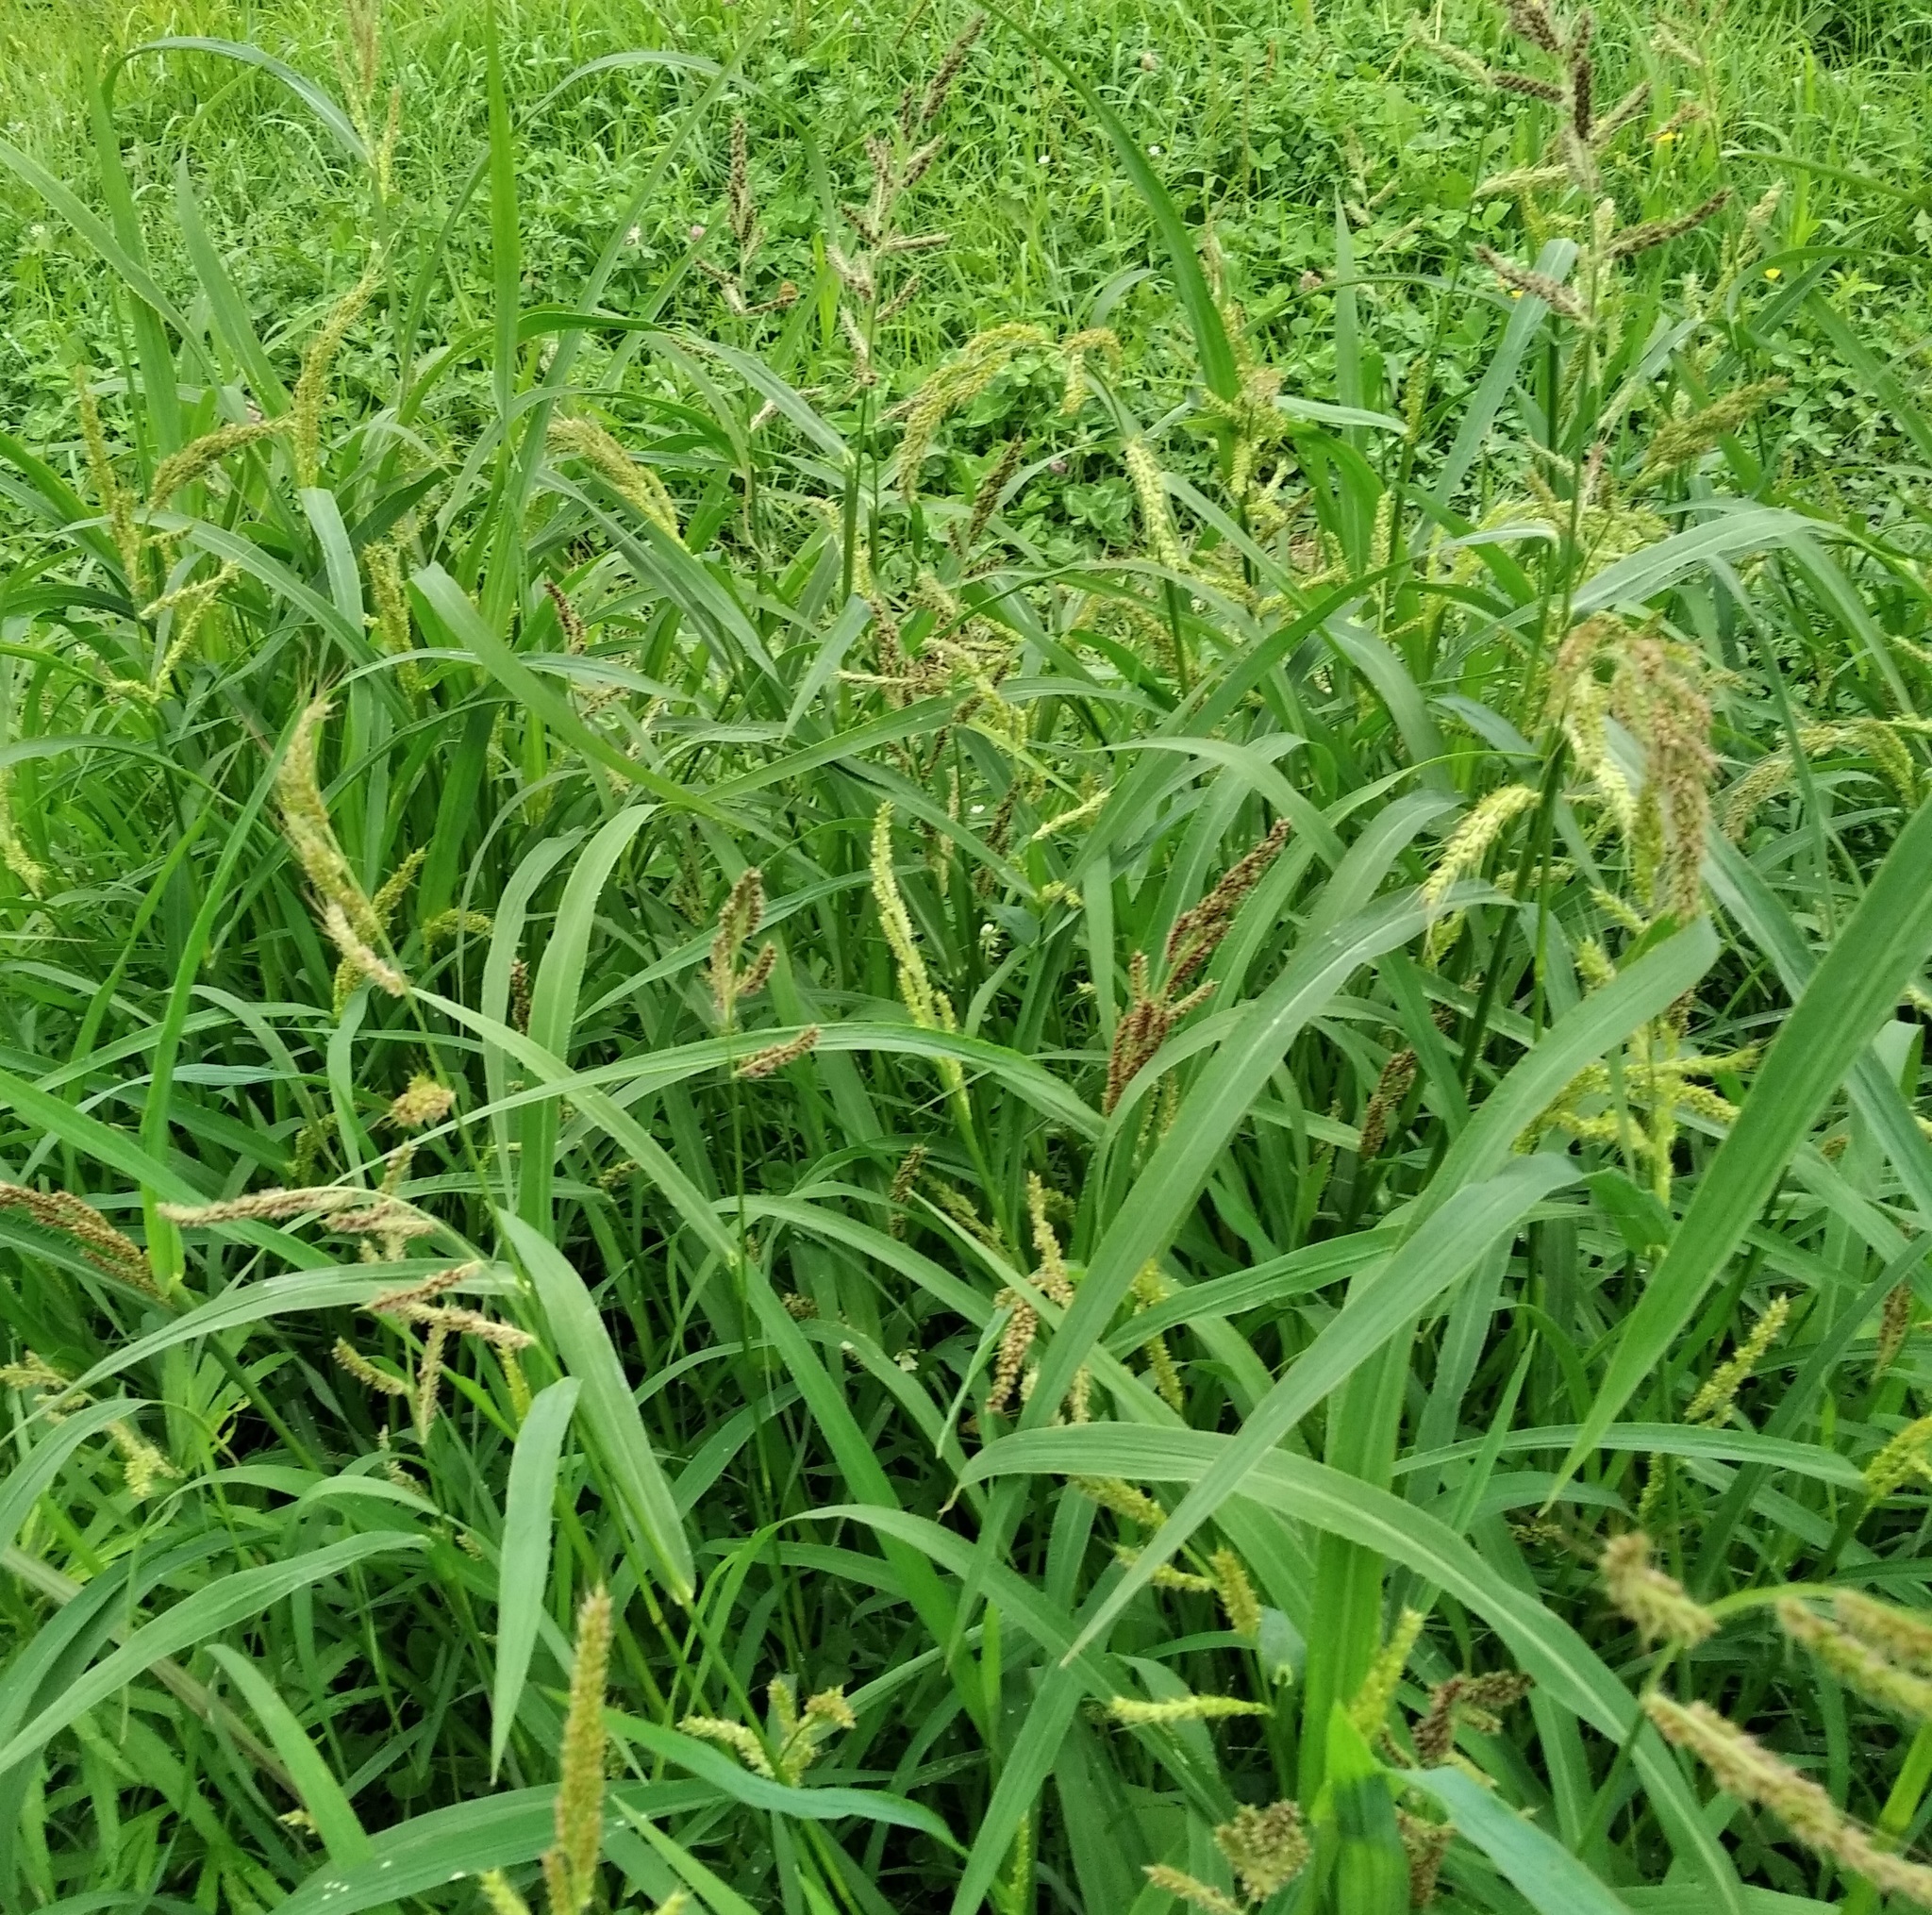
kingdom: Plantae
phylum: Tracheophyta
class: Liliopsida
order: Poales
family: Poaceae
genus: Echinochloa
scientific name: Echinochloa crus-galli
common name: Cockspur
